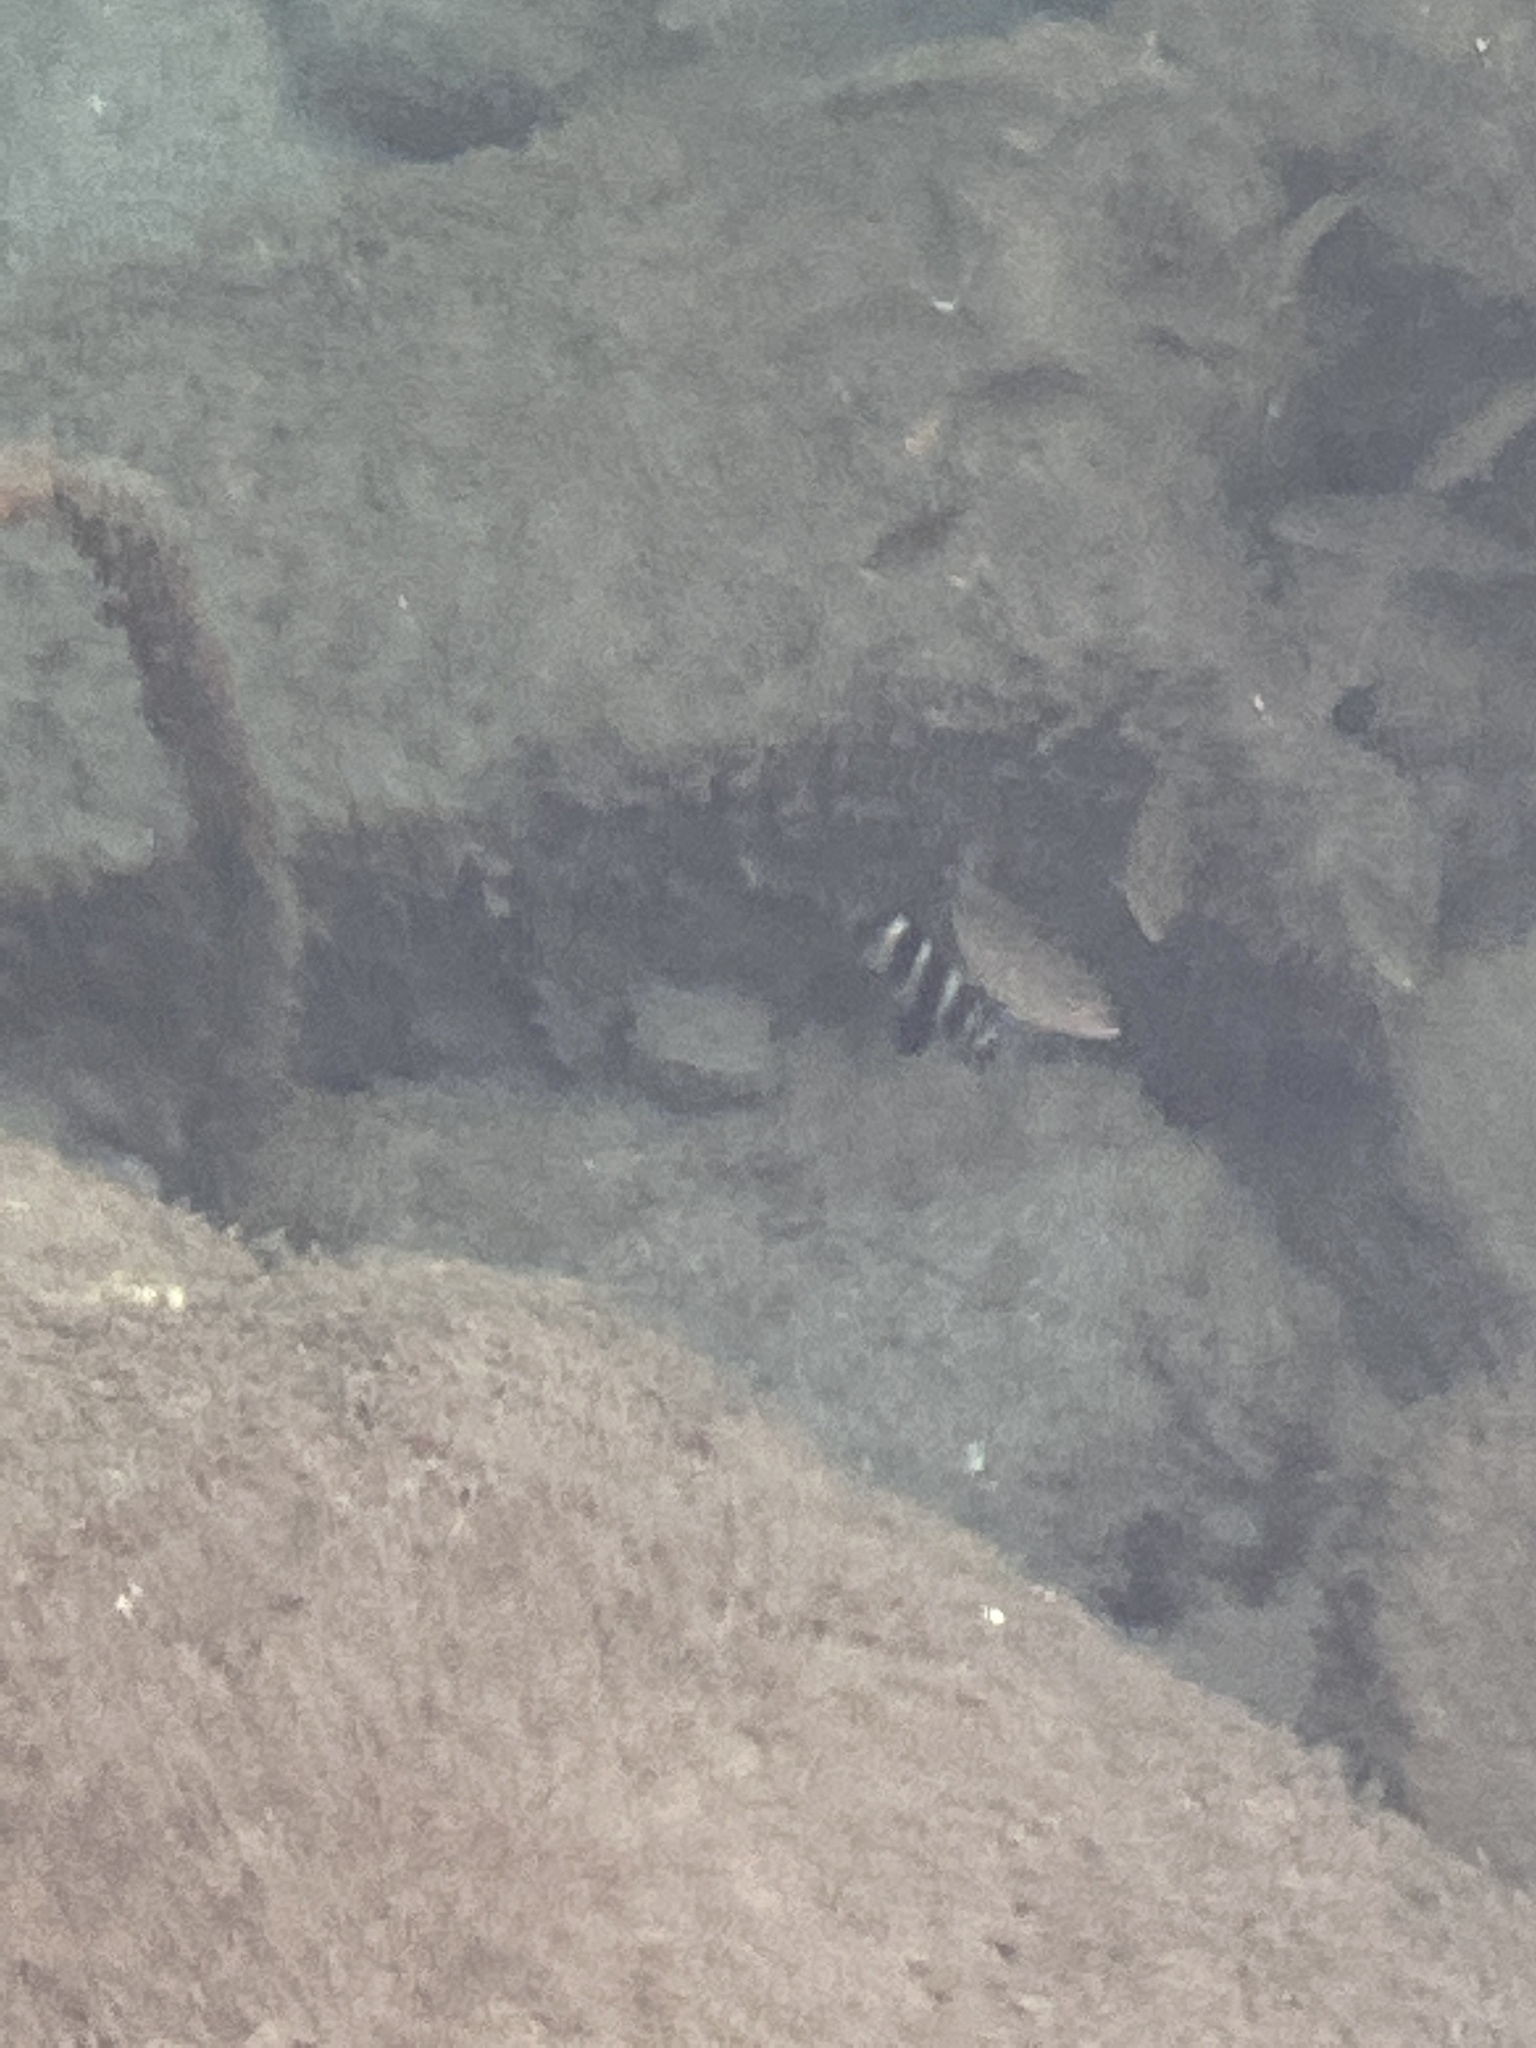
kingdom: Animalia
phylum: Chordata
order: Perciformes
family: Sparidae
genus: Diplodus
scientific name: Diplodus cervinus
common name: Oman porgy
